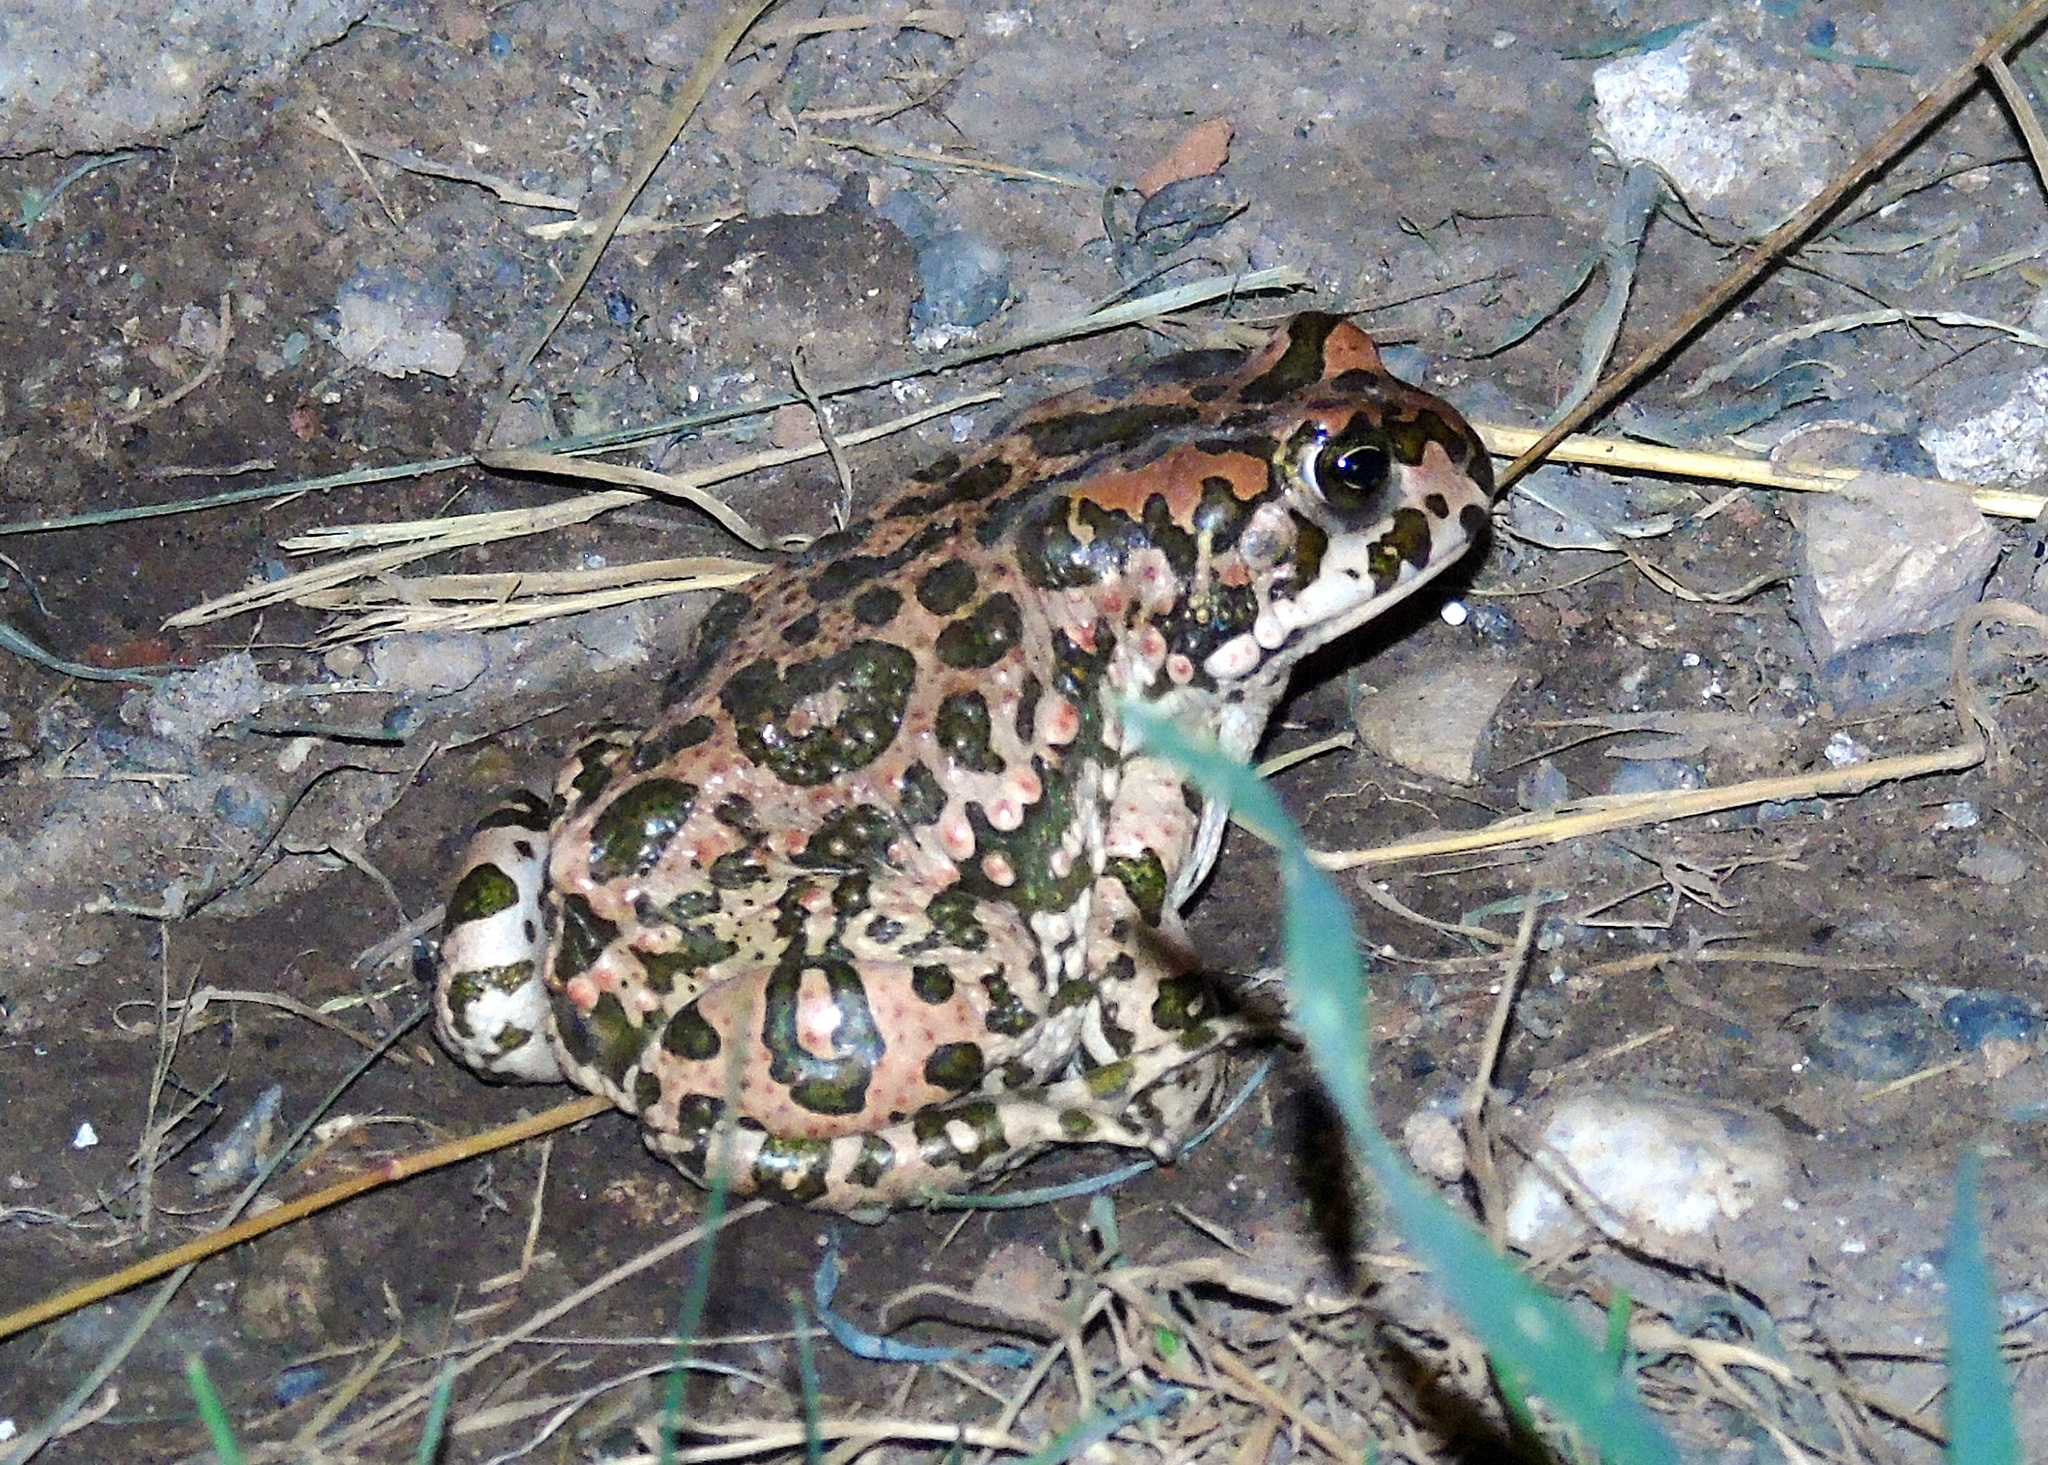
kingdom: Animalia
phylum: Chordata
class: Amphibia
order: Anura
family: Bufonidae
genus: Bufotes
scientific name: Bufotes viridis
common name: European green toad
